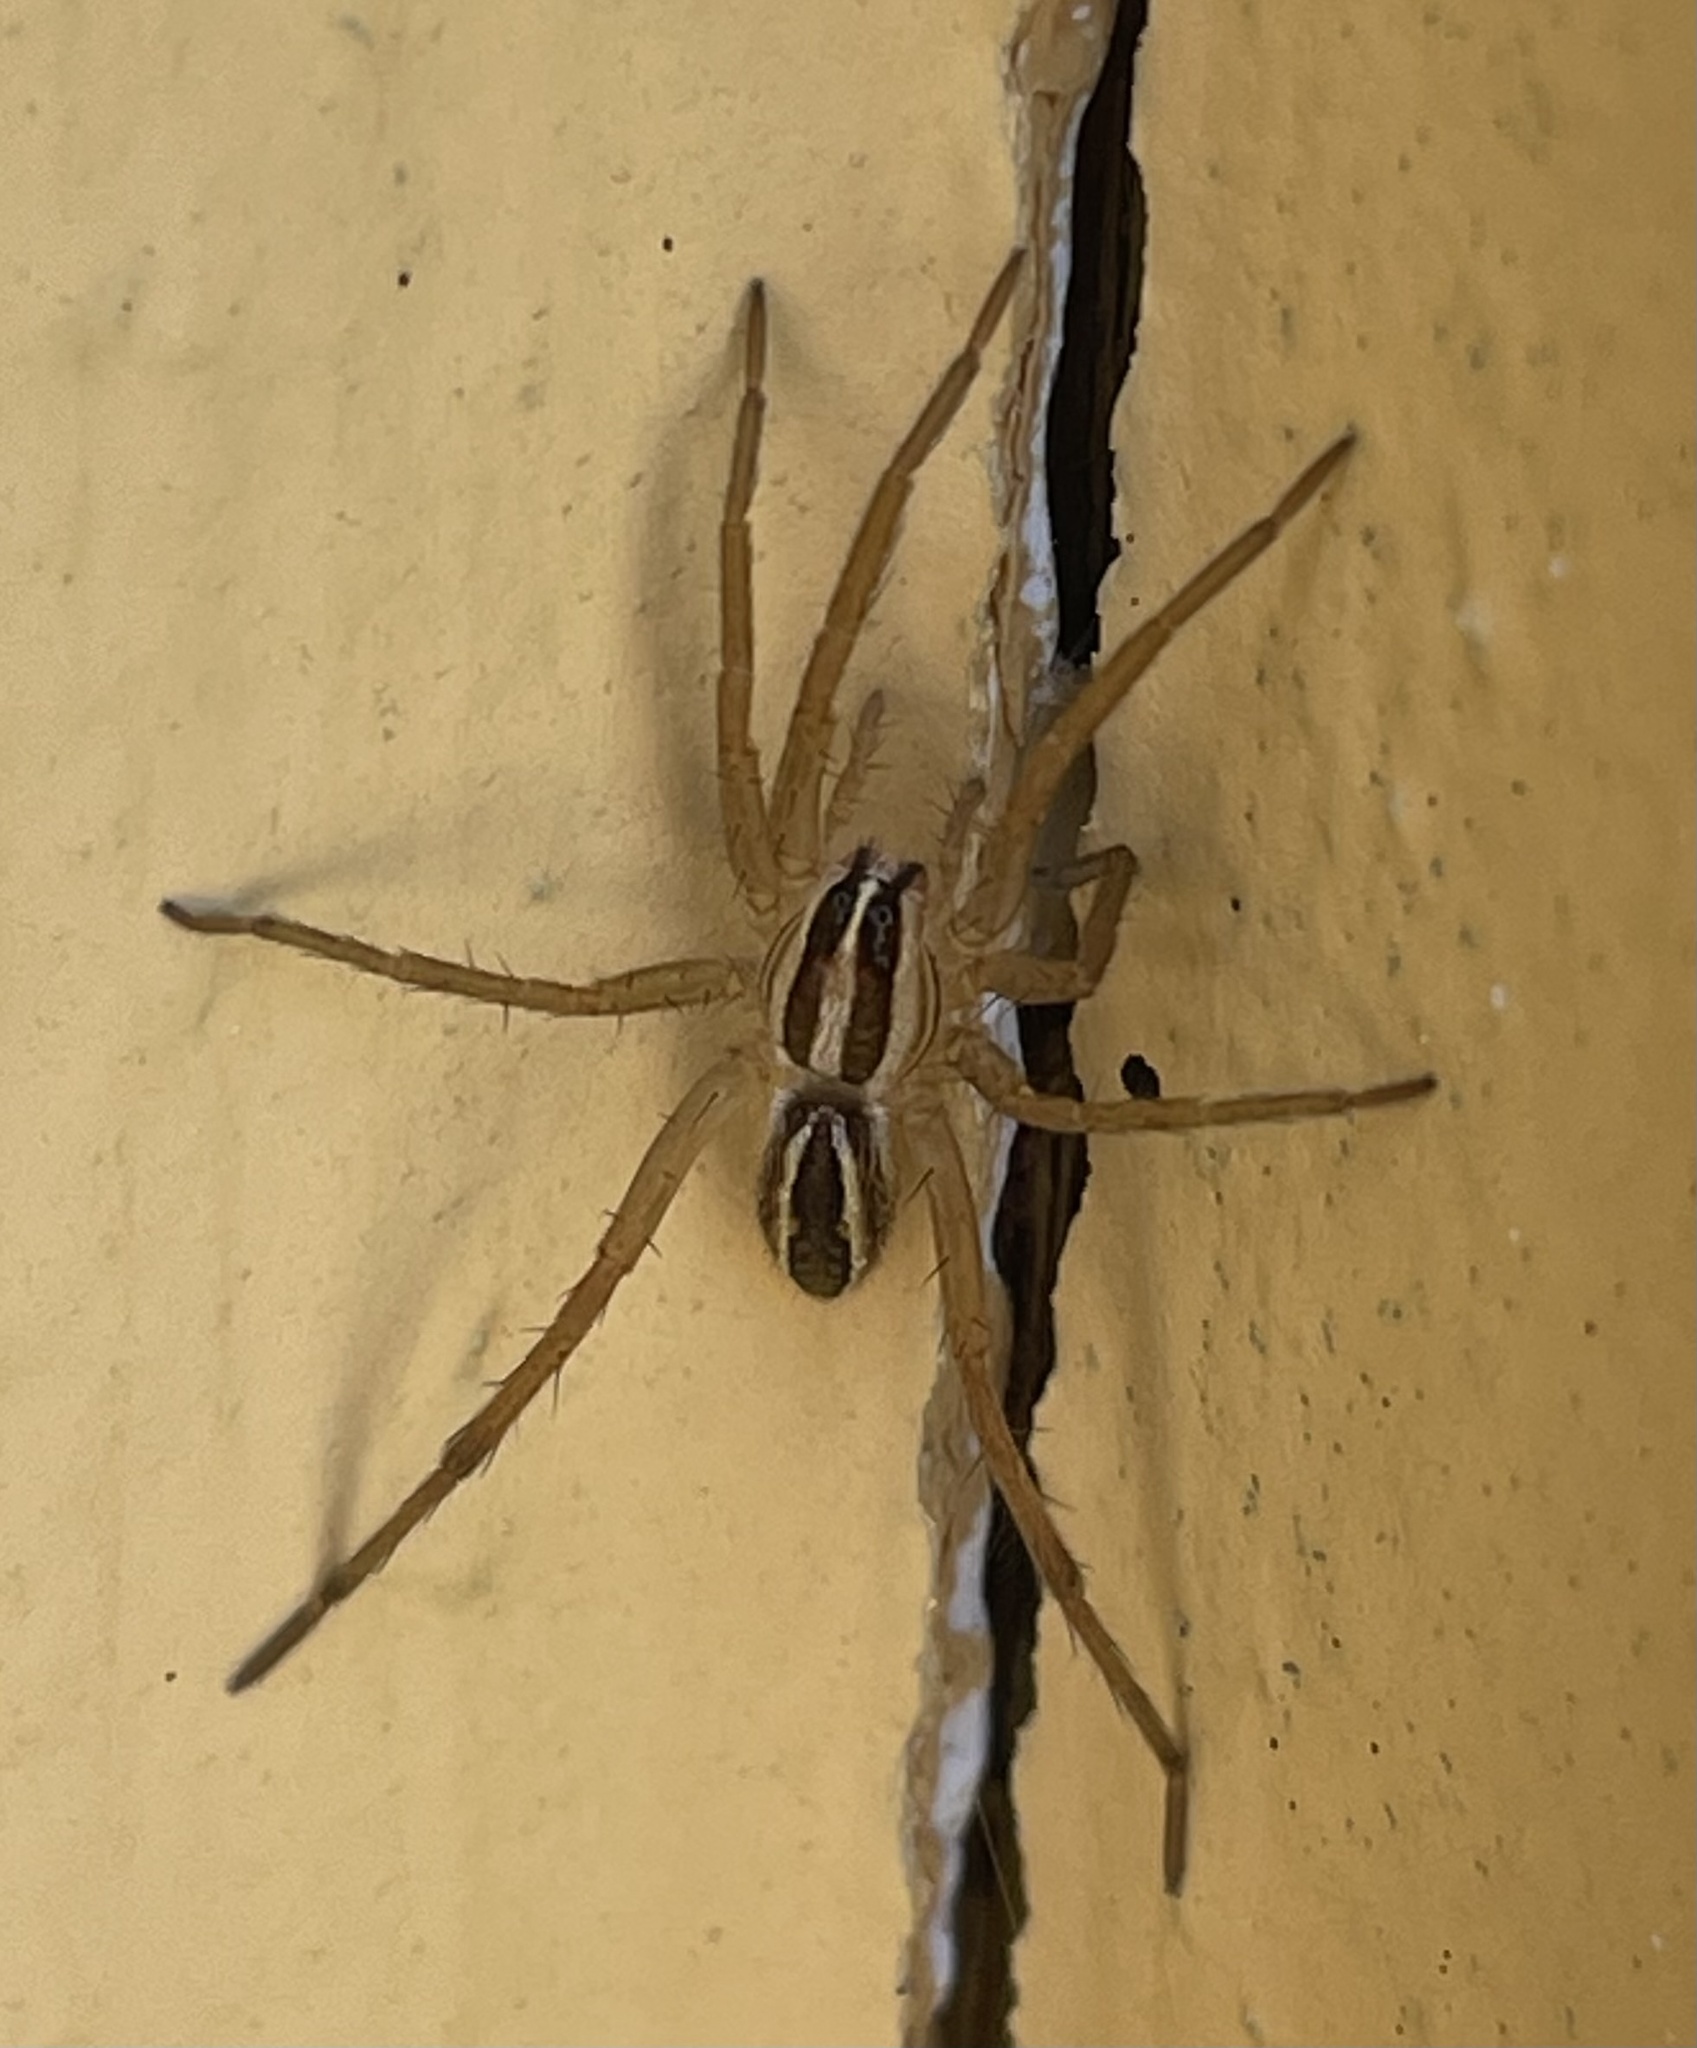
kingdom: Animalia
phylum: Arthropoda
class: Arachnida
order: Araneae
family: Lycosidae
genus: Rabidosa
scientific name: Rabidosa rabida
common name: Rabid wolf spider
